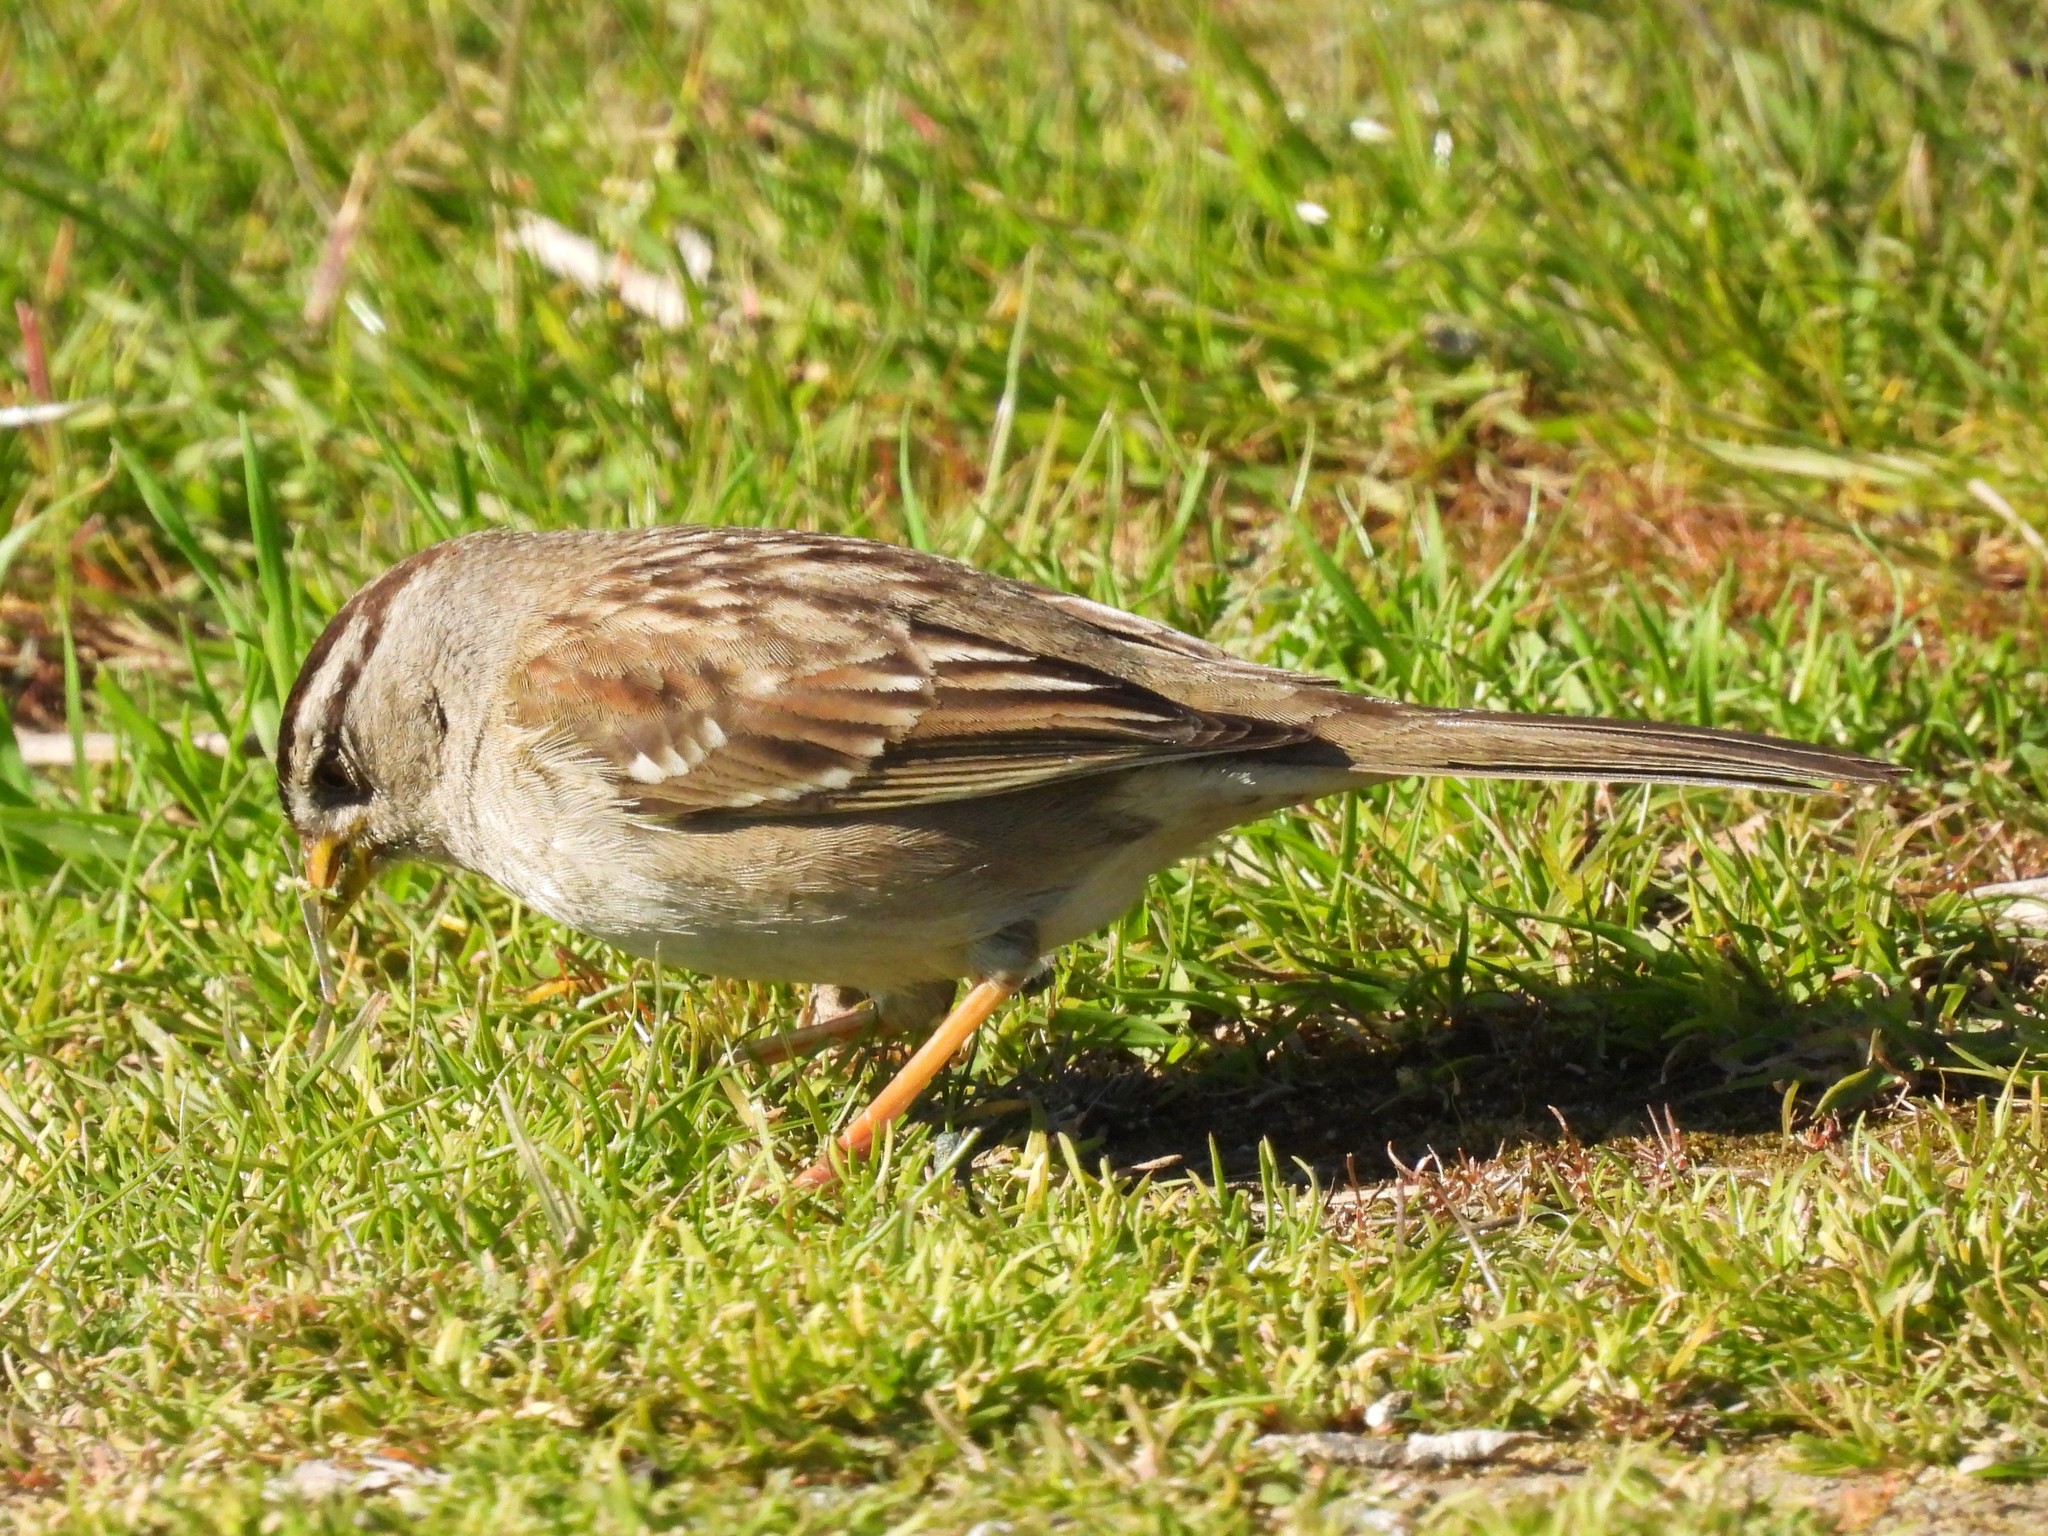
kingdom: Animalia
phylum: Chordata
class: Aves
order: Passeriformes
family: Passerellidae
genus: Zonotrichia
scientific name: Zonotrichia leucophrys
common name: White-crowned sparrow
